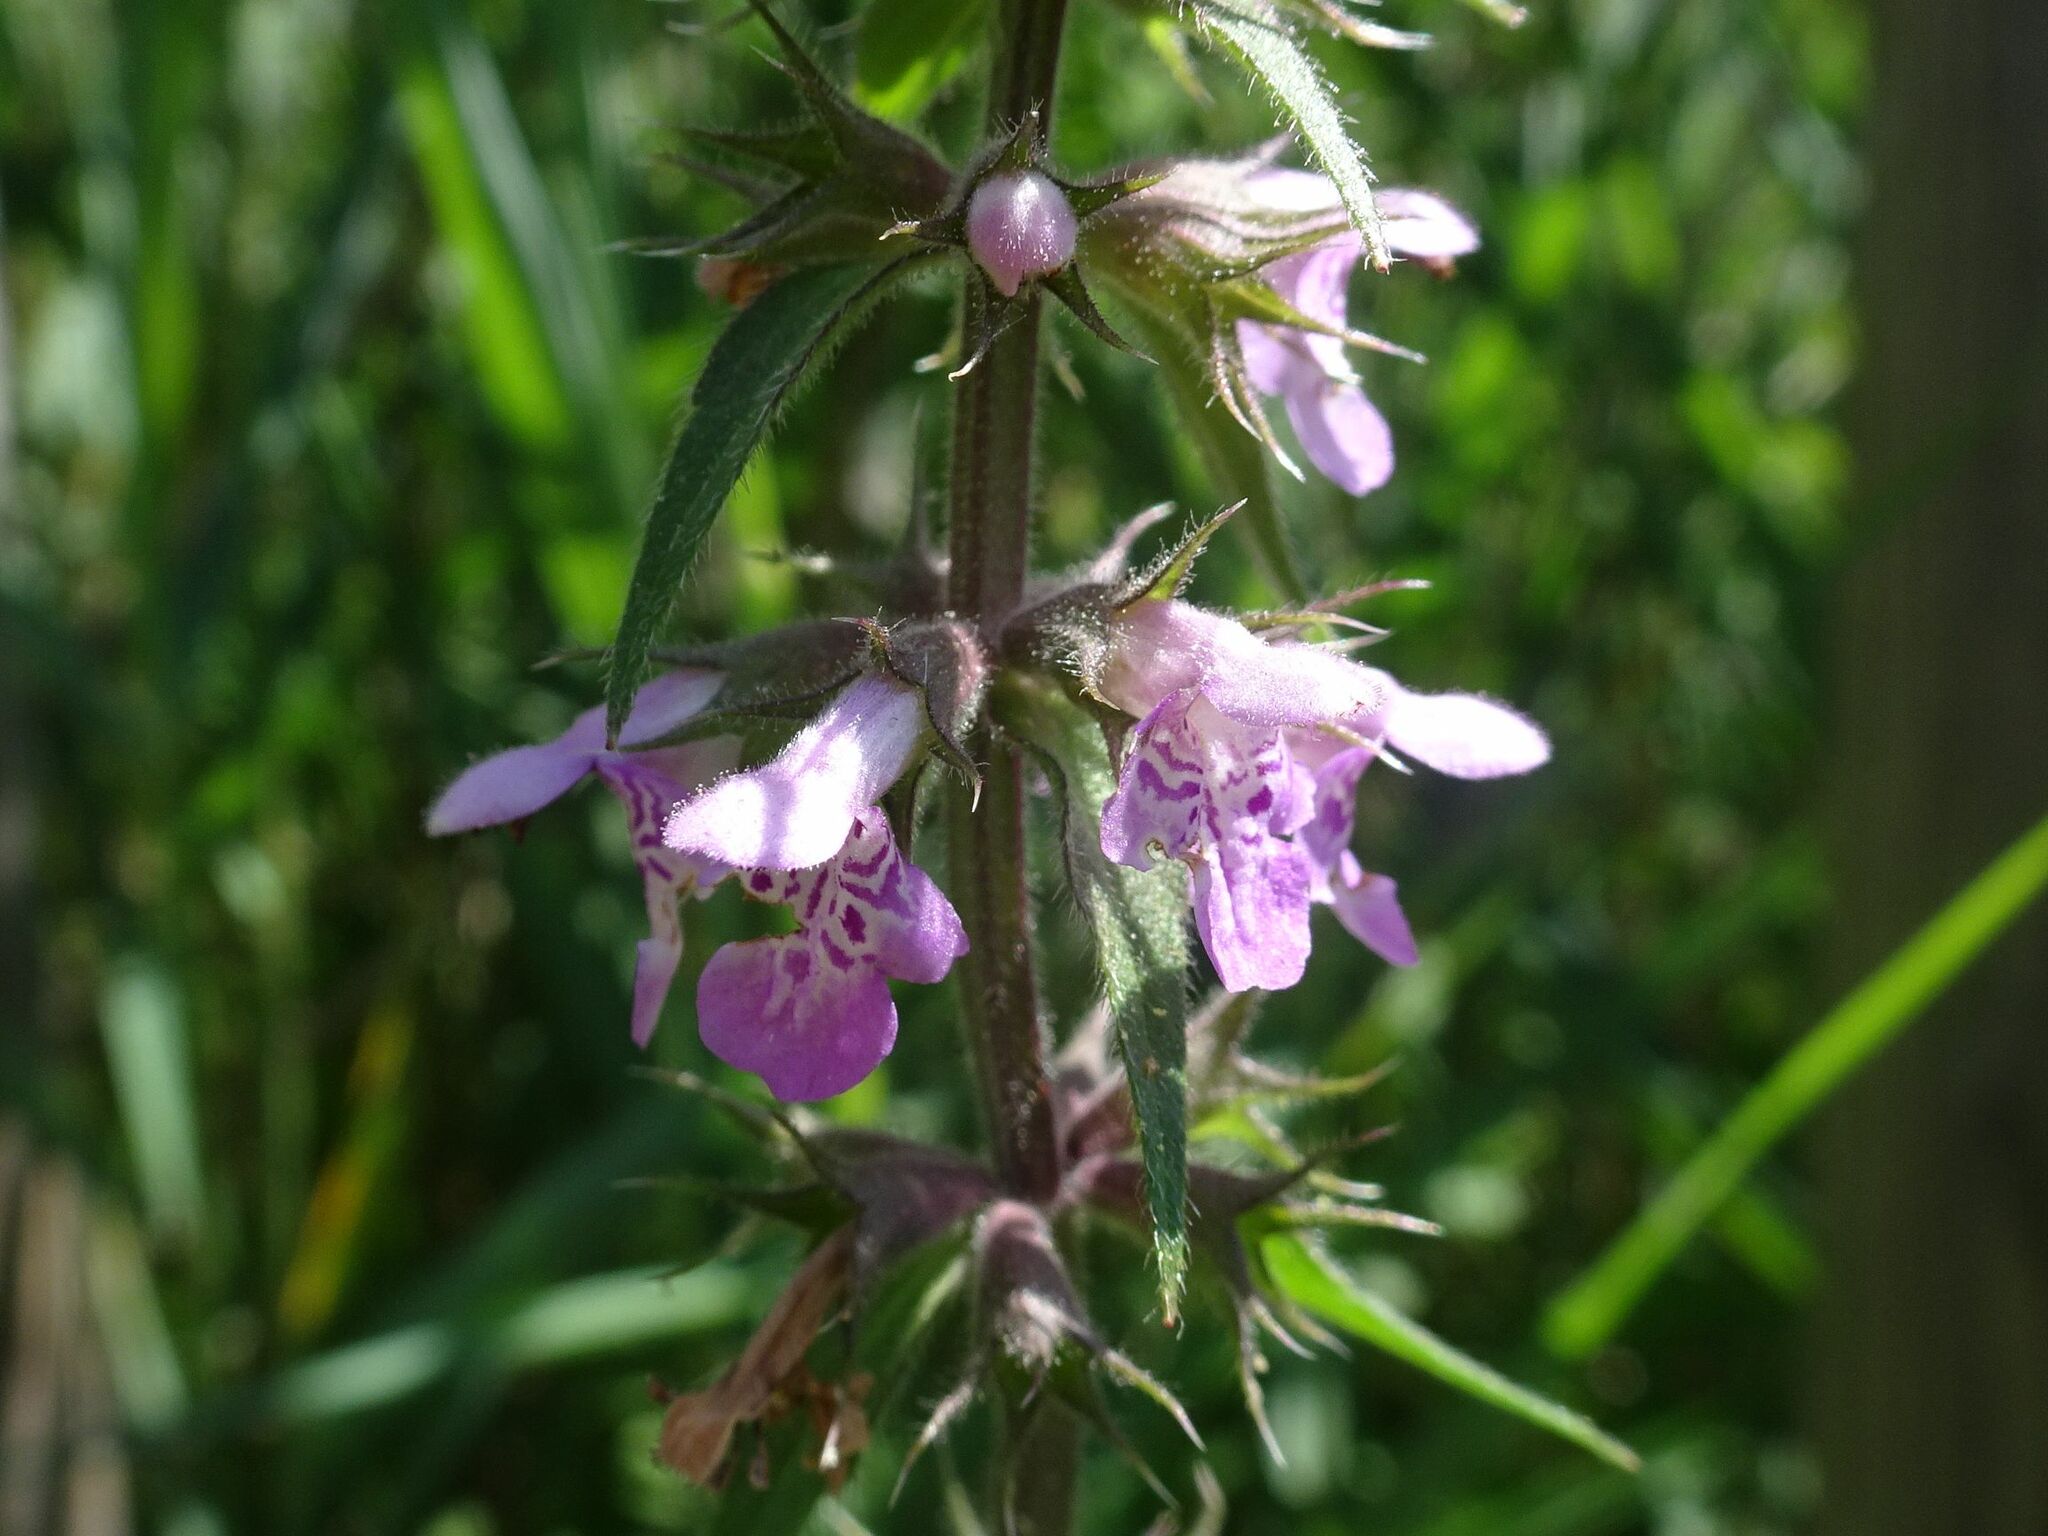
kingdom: Plantae
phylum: Tracheophyta
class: Magnoliopsida
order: Lamiales
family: Lamiaceae
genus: Stachys
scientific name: Stachys palustris
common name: Marsh woundwort
